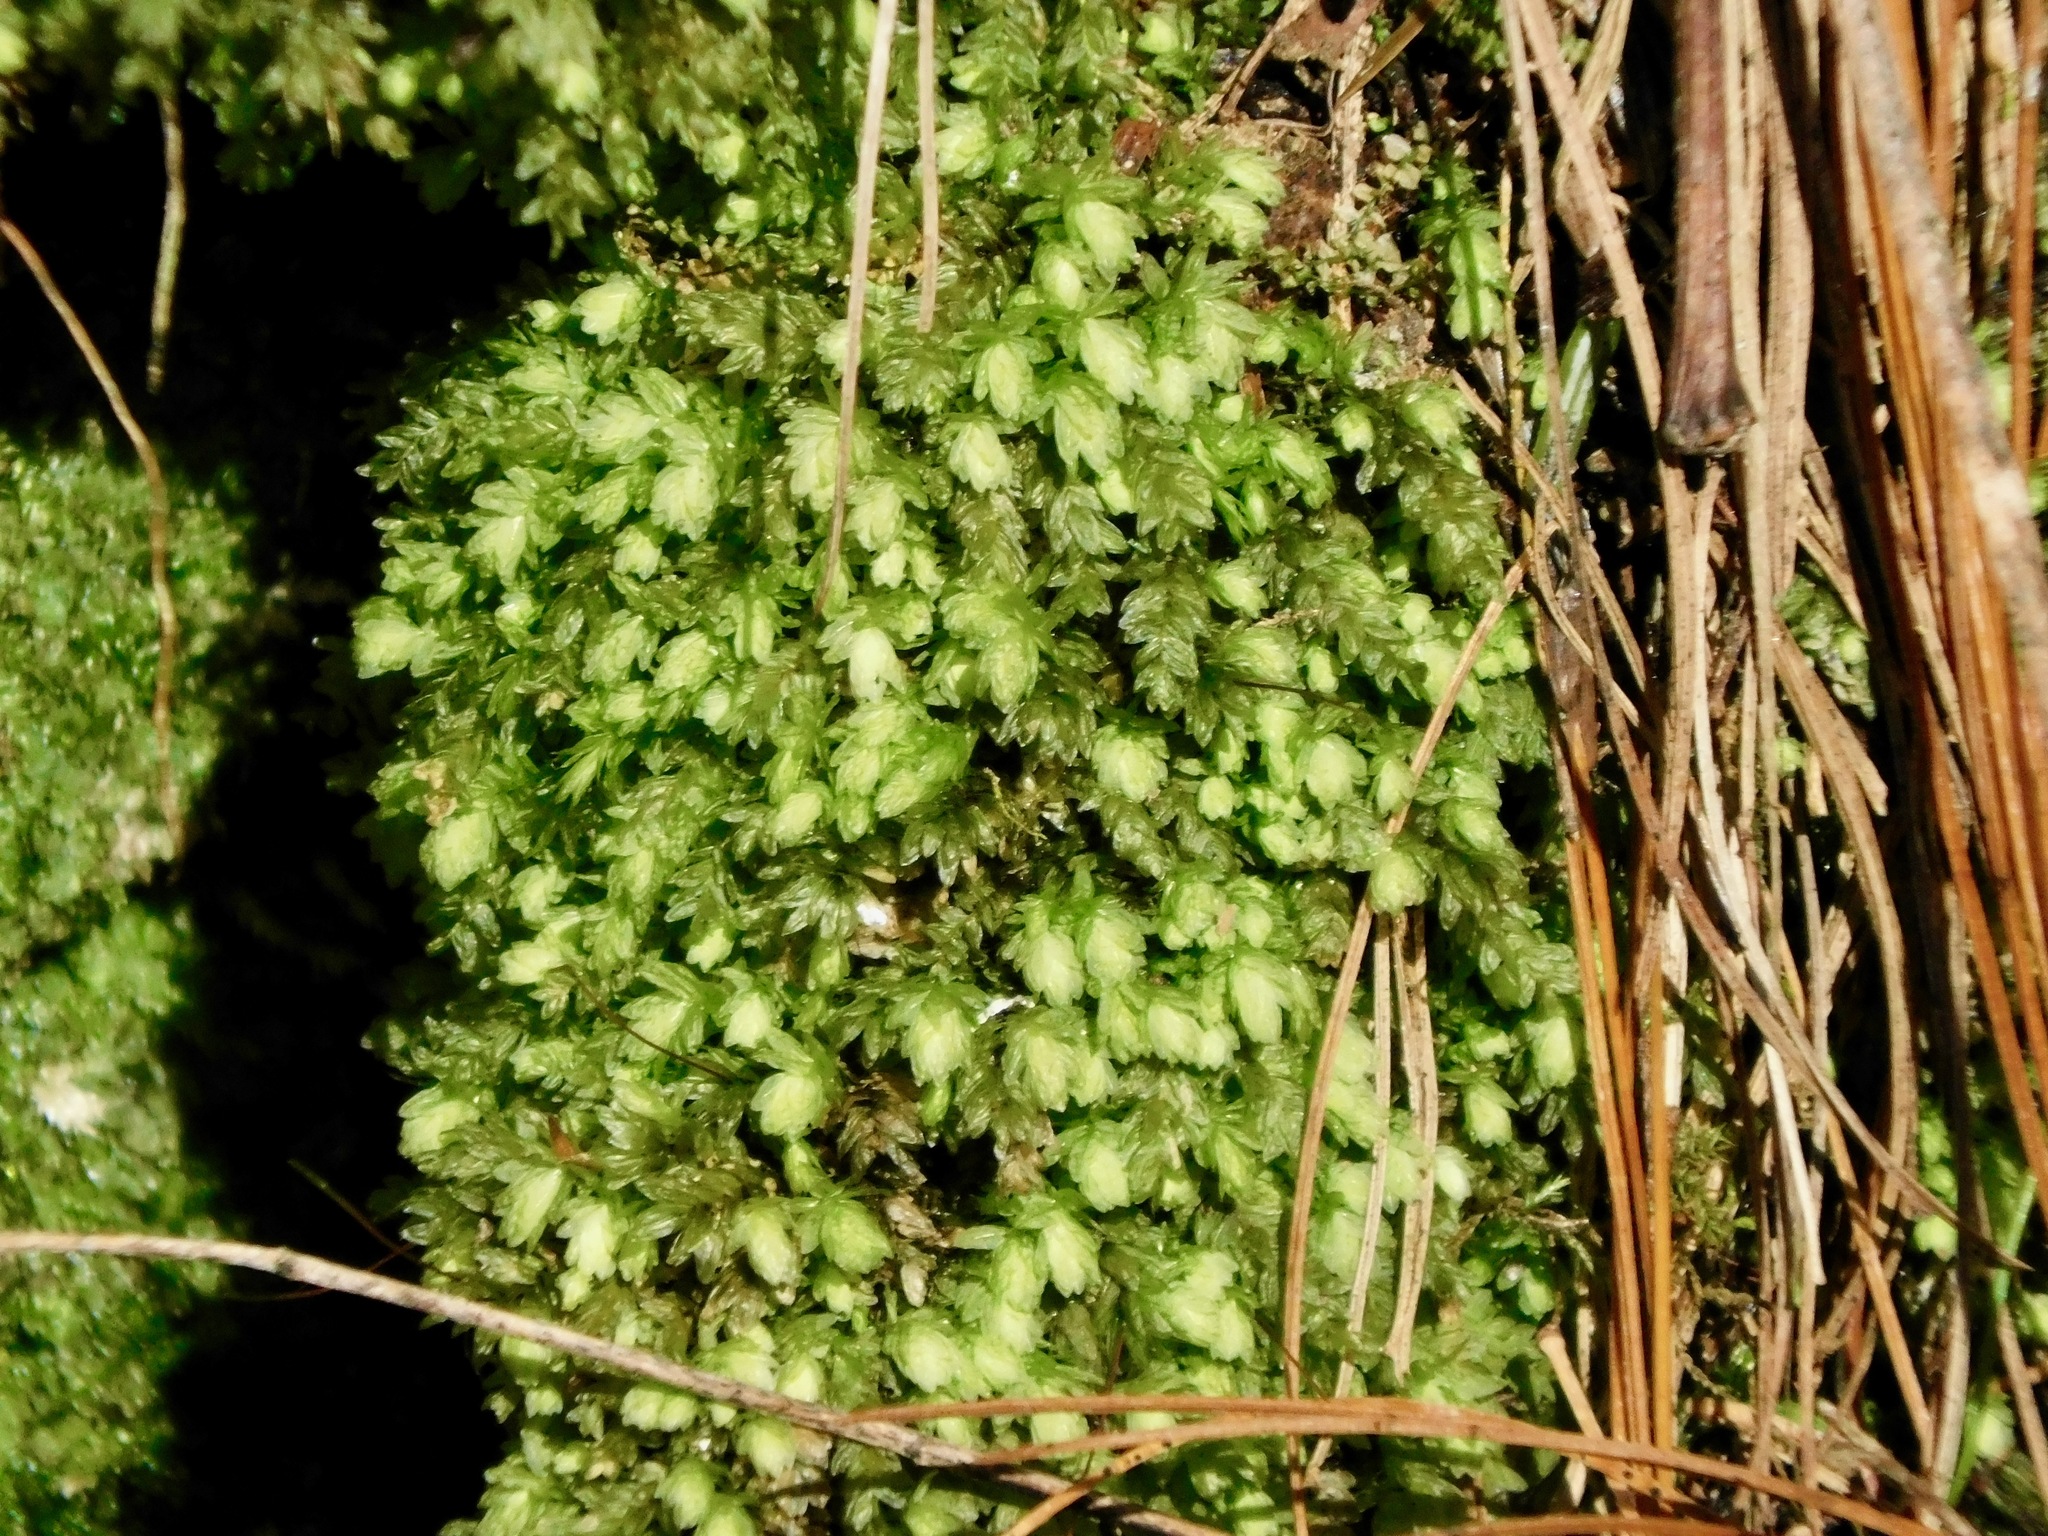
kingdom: Plantae
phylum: Bryophyta
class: Bryopsida
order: Aulacomniales
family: Aulacomniaceae
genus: Aulacomnium
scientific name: Aulacomnium heterostichum
